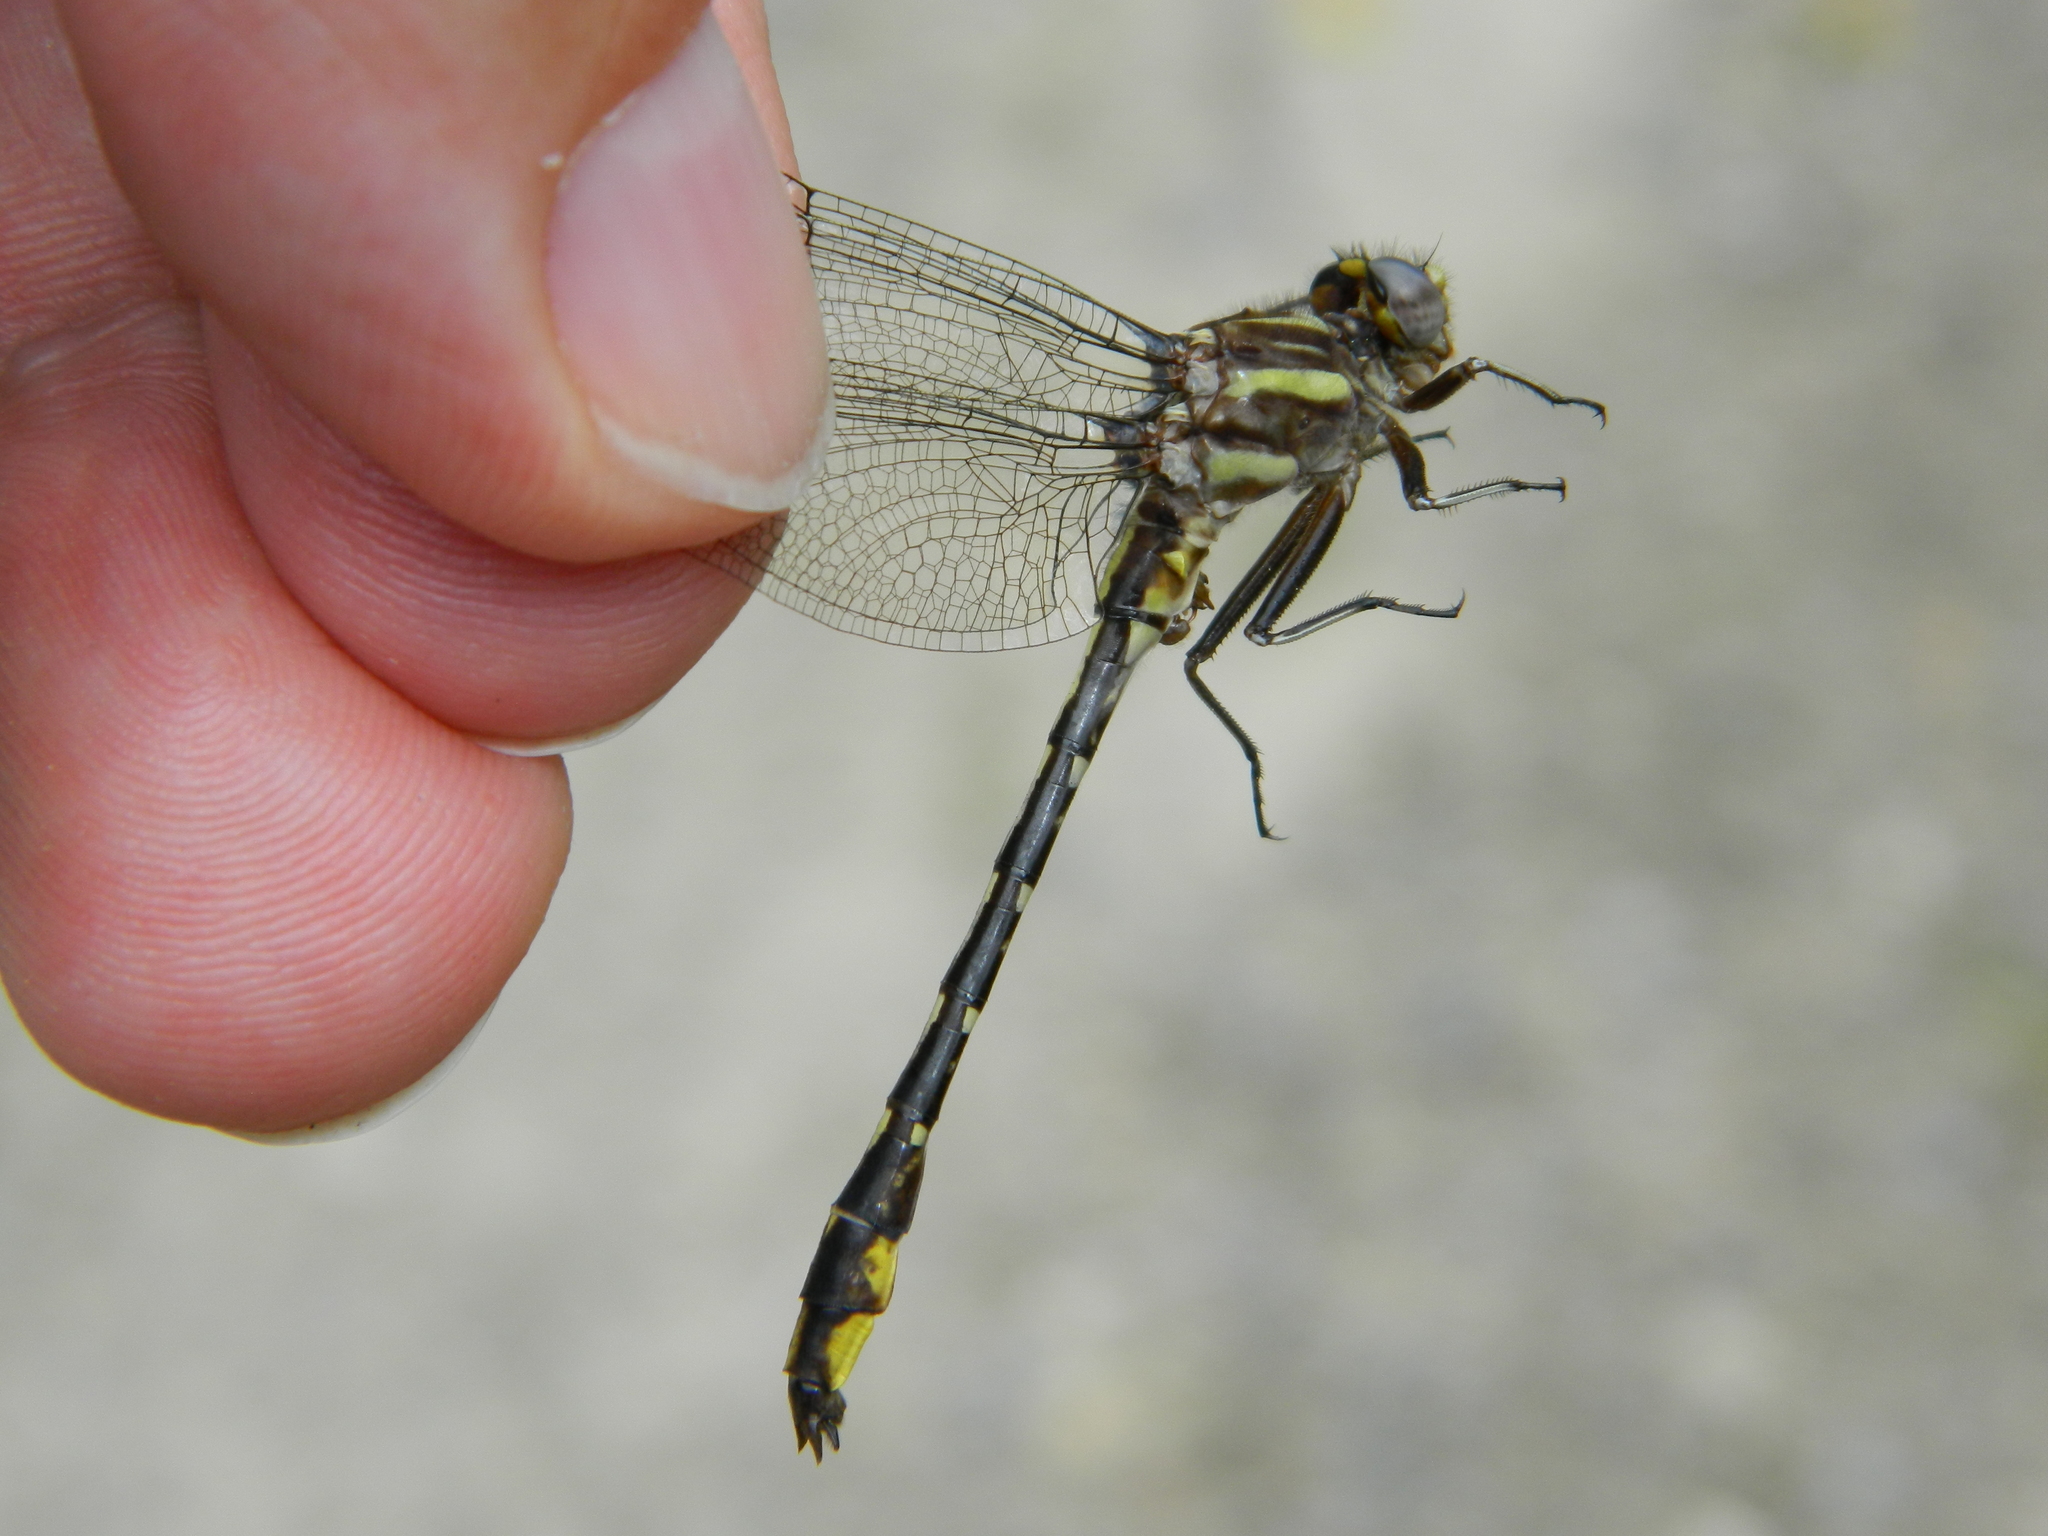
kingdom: Animalia
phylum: Arthropoda
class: Insecta
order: Odonata
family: Gomphidae
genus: Phanogomphus
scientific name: Phanogomphus exilis
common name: Lancet clubtail
